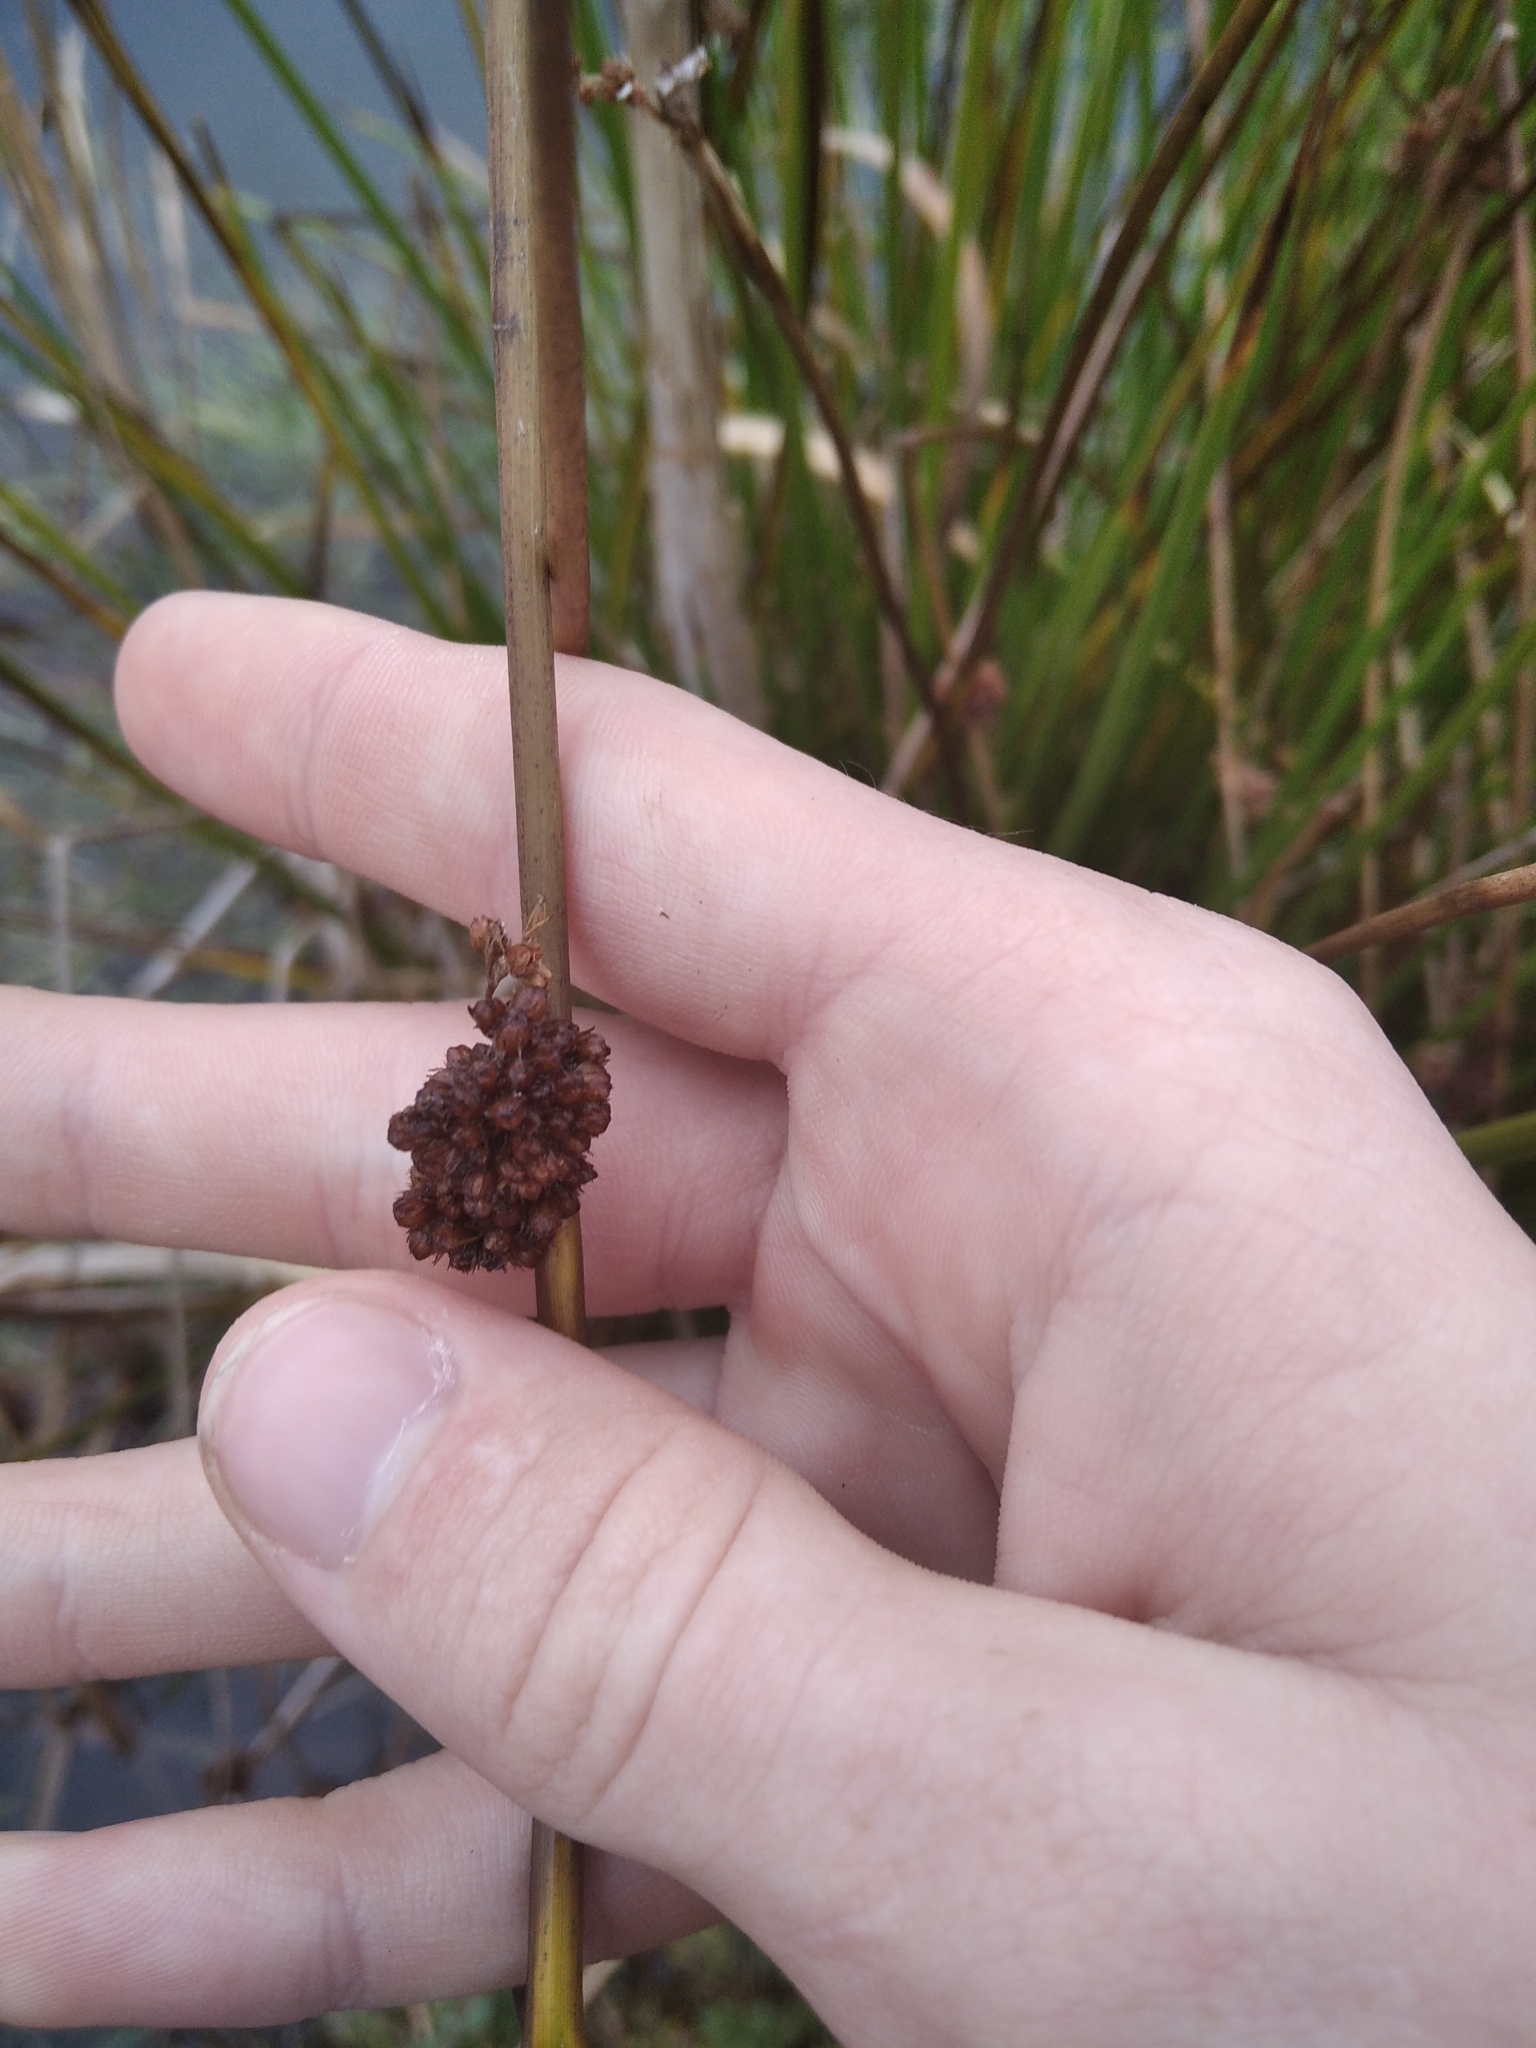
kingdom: Plantae
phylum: Tracheophyta
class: Liliopsida
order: Poales
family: Juncaceae
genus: Juncus
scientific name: Juncus effusus
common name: Soft rush
